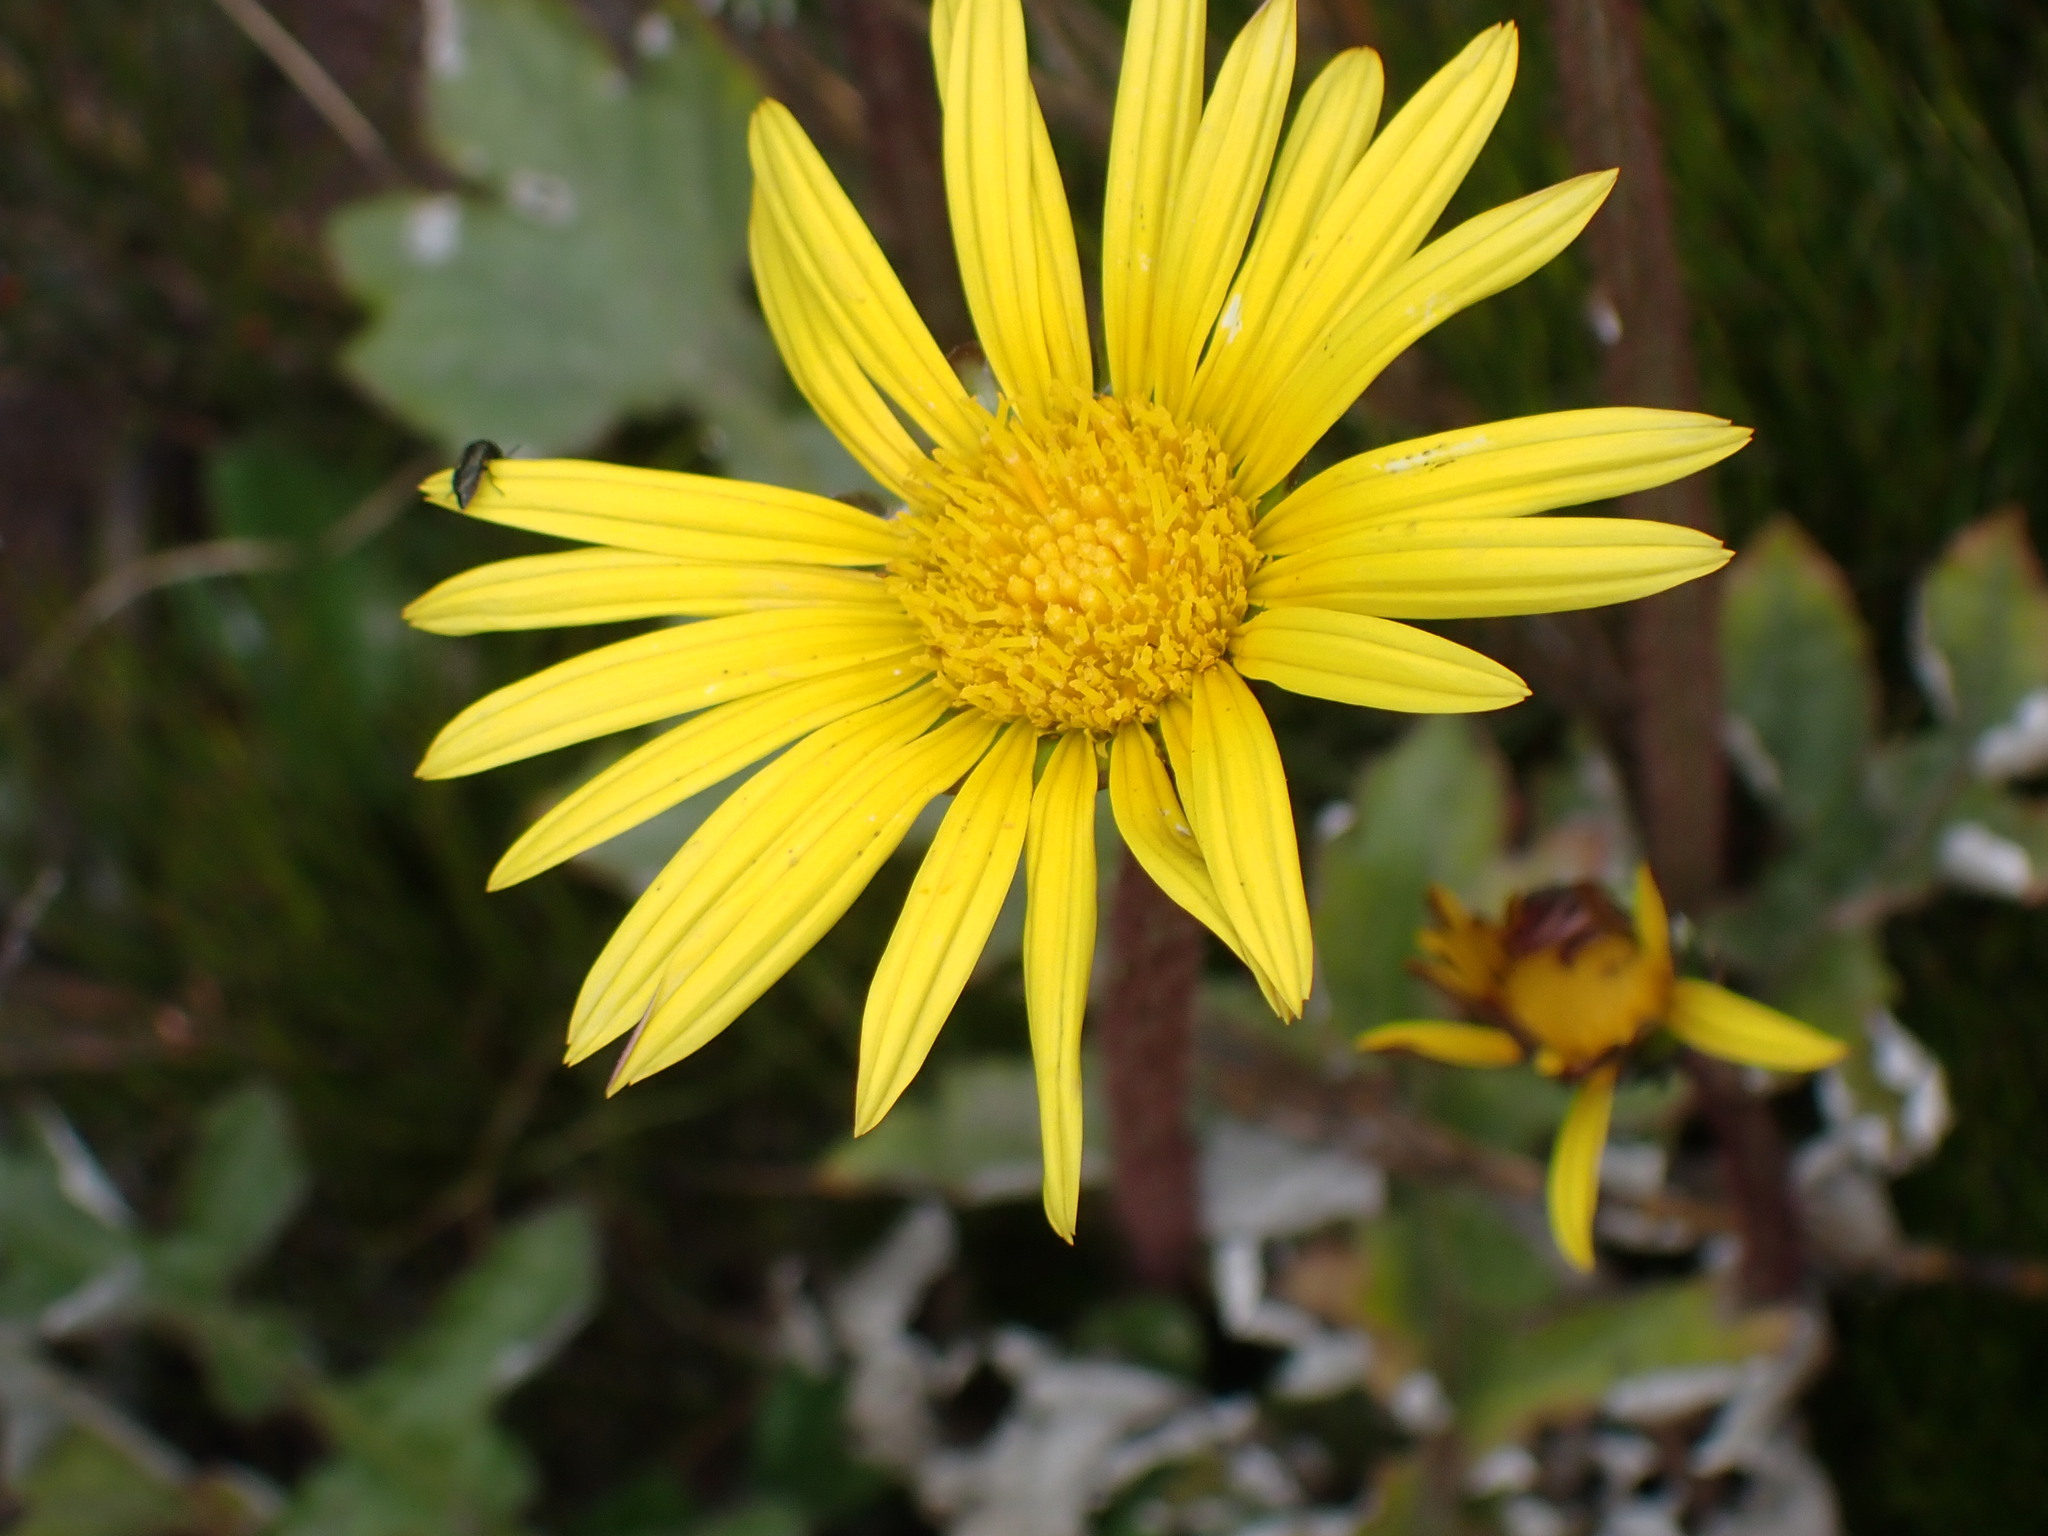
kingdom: Plantae
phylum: Tracheophyta
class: Magnoliopsida
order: Asterales
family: Asteraceae
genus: Arctotheca
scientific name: Arctotheca prostrata
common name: Capeweed
